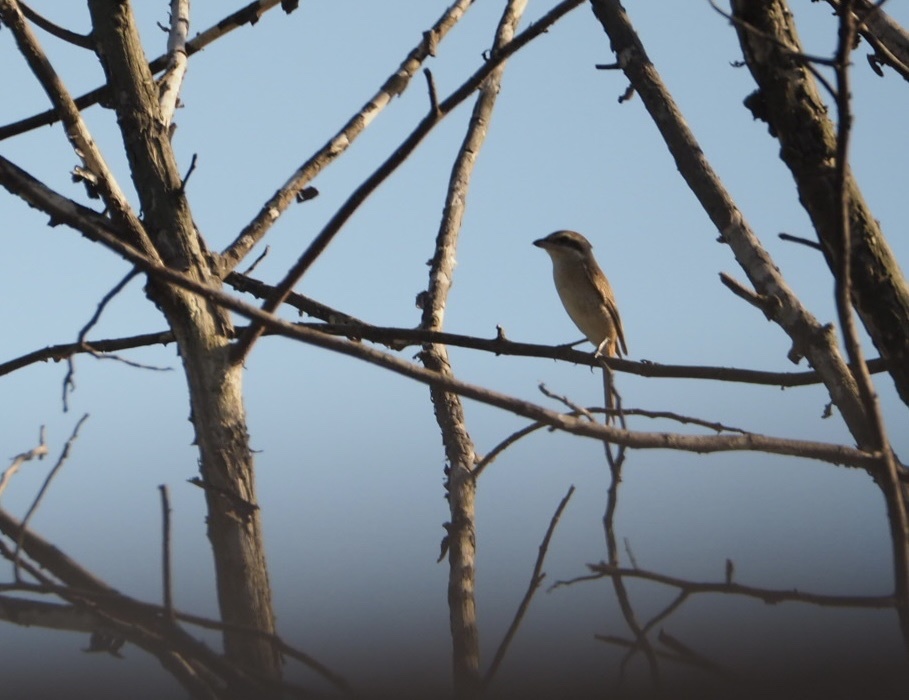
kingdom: Animalia
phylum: Chordata
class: Aves
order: Passeriformes
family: Laniidae
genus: Lanius
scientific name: Lanius cristatus
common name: Brown shrike
